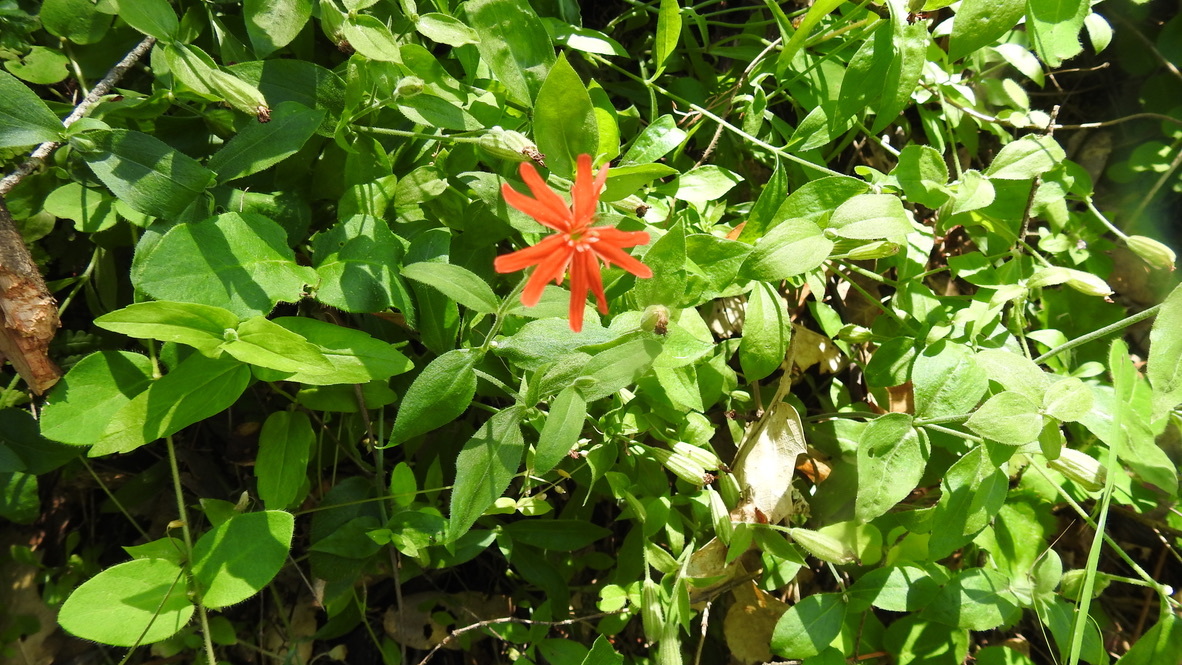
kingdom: Plantae
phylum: Tracheophyta
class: Magnoliopsida
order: Caryophyllales
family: Caryophyllaceae
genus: Silene
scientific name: Silene laciniata
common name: Indian-pink
